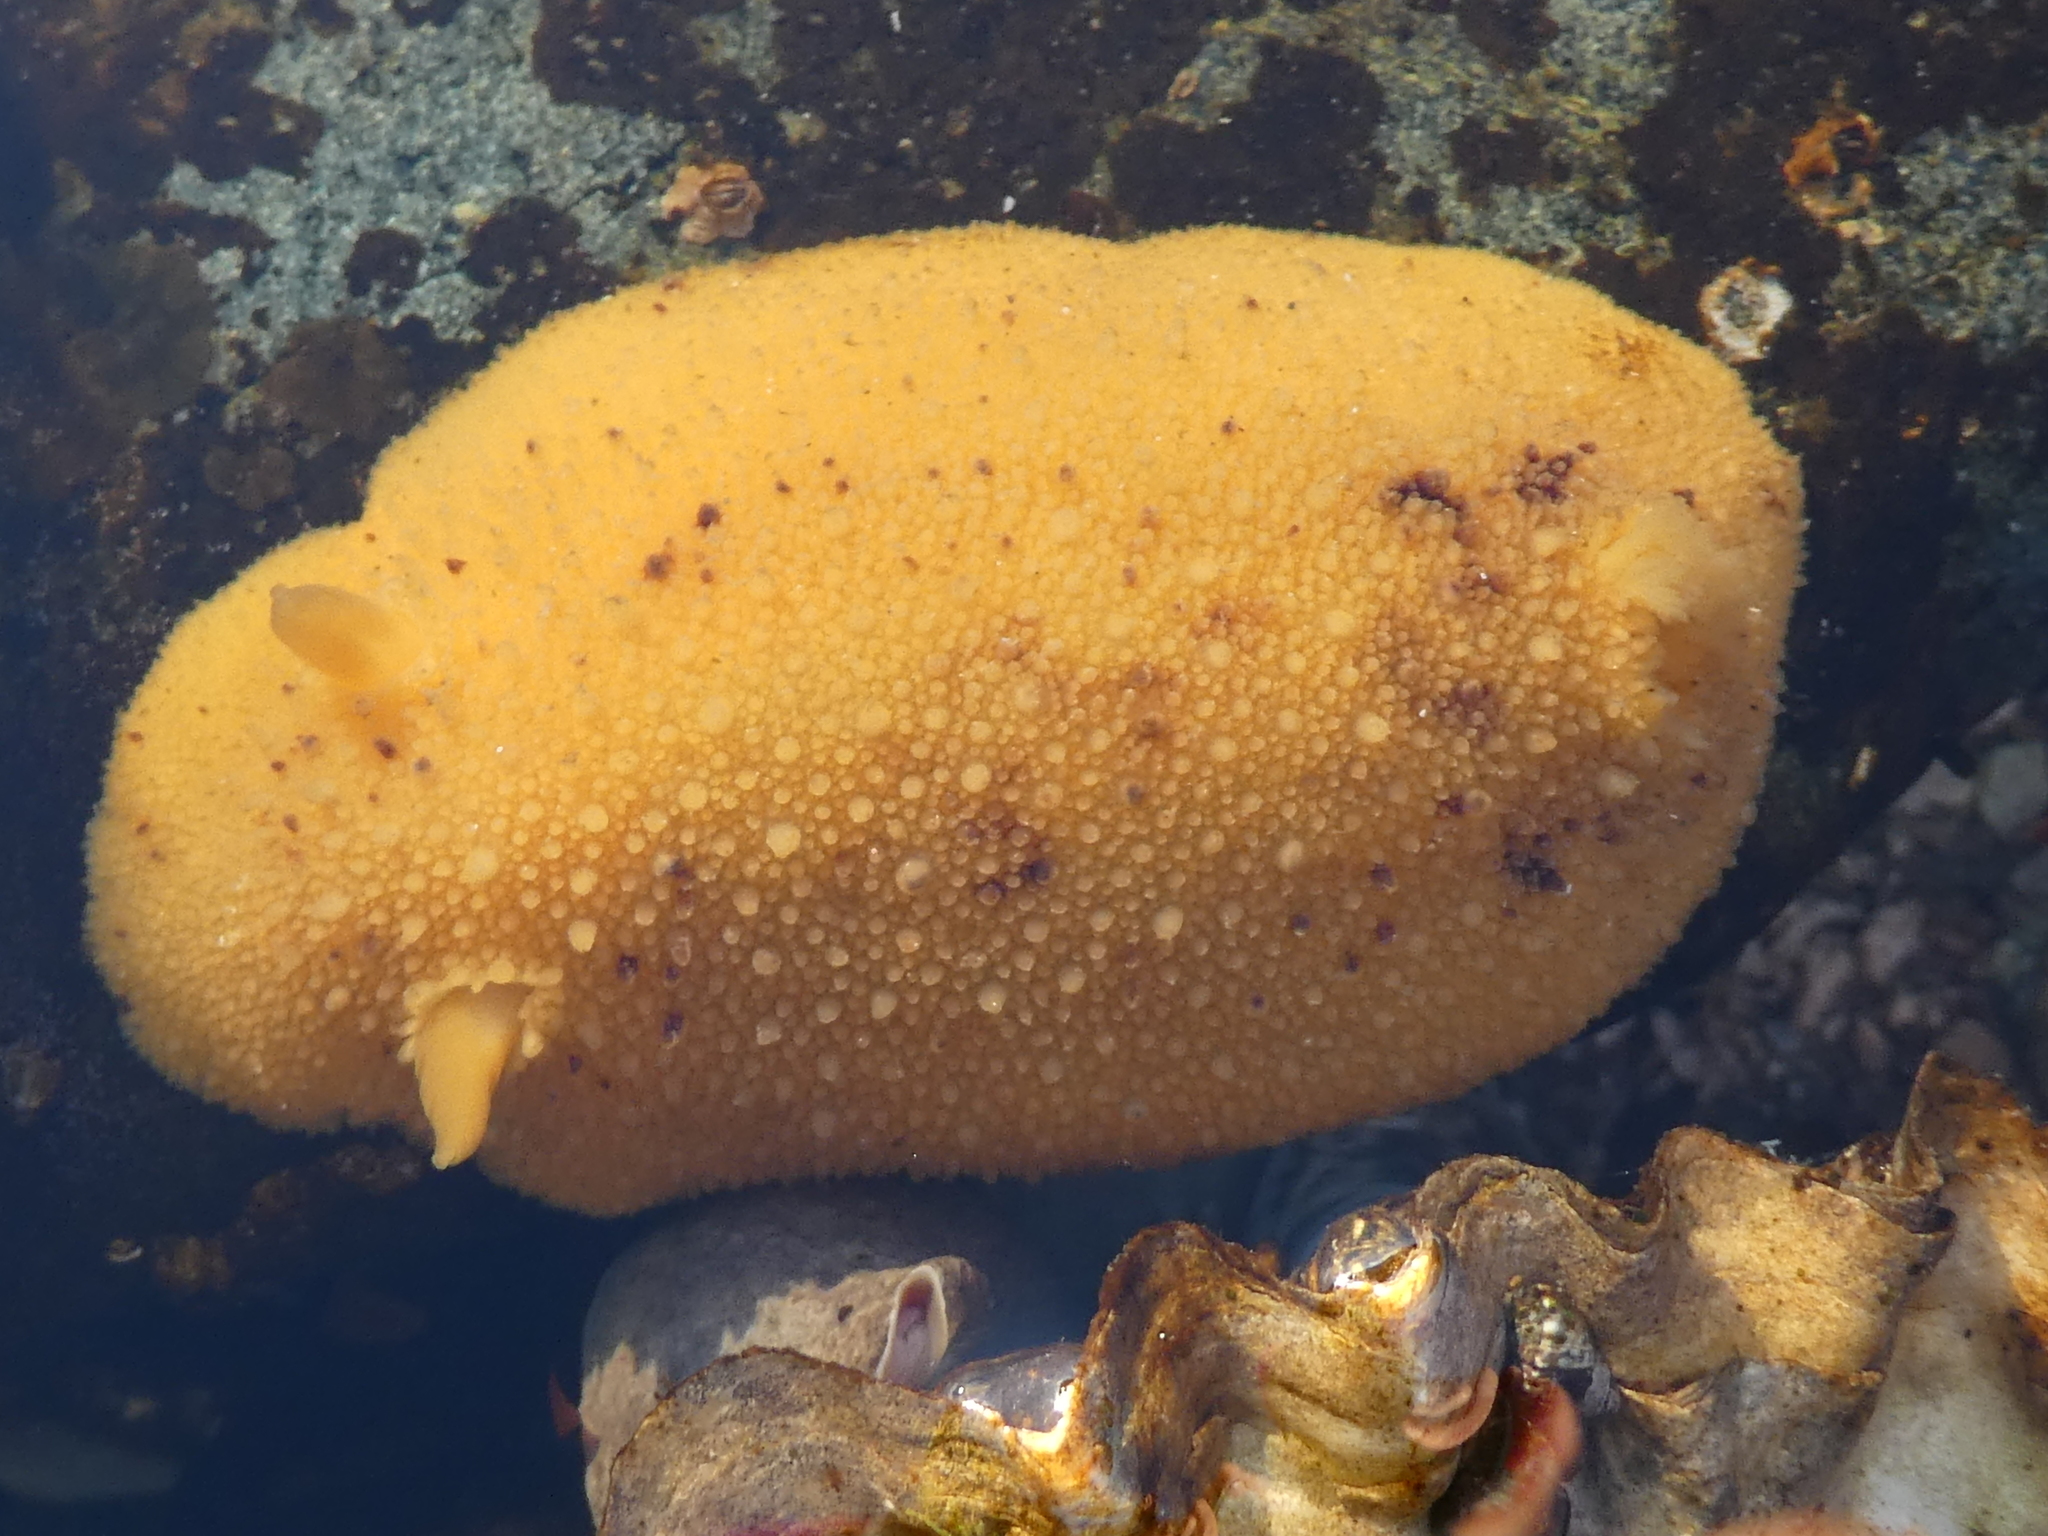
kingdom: Animalia
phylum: Mollusca
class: Gastropoda
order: Nudibranchia
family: Discodorididae
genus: Geitodoris
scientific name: Geitodoris heathi
